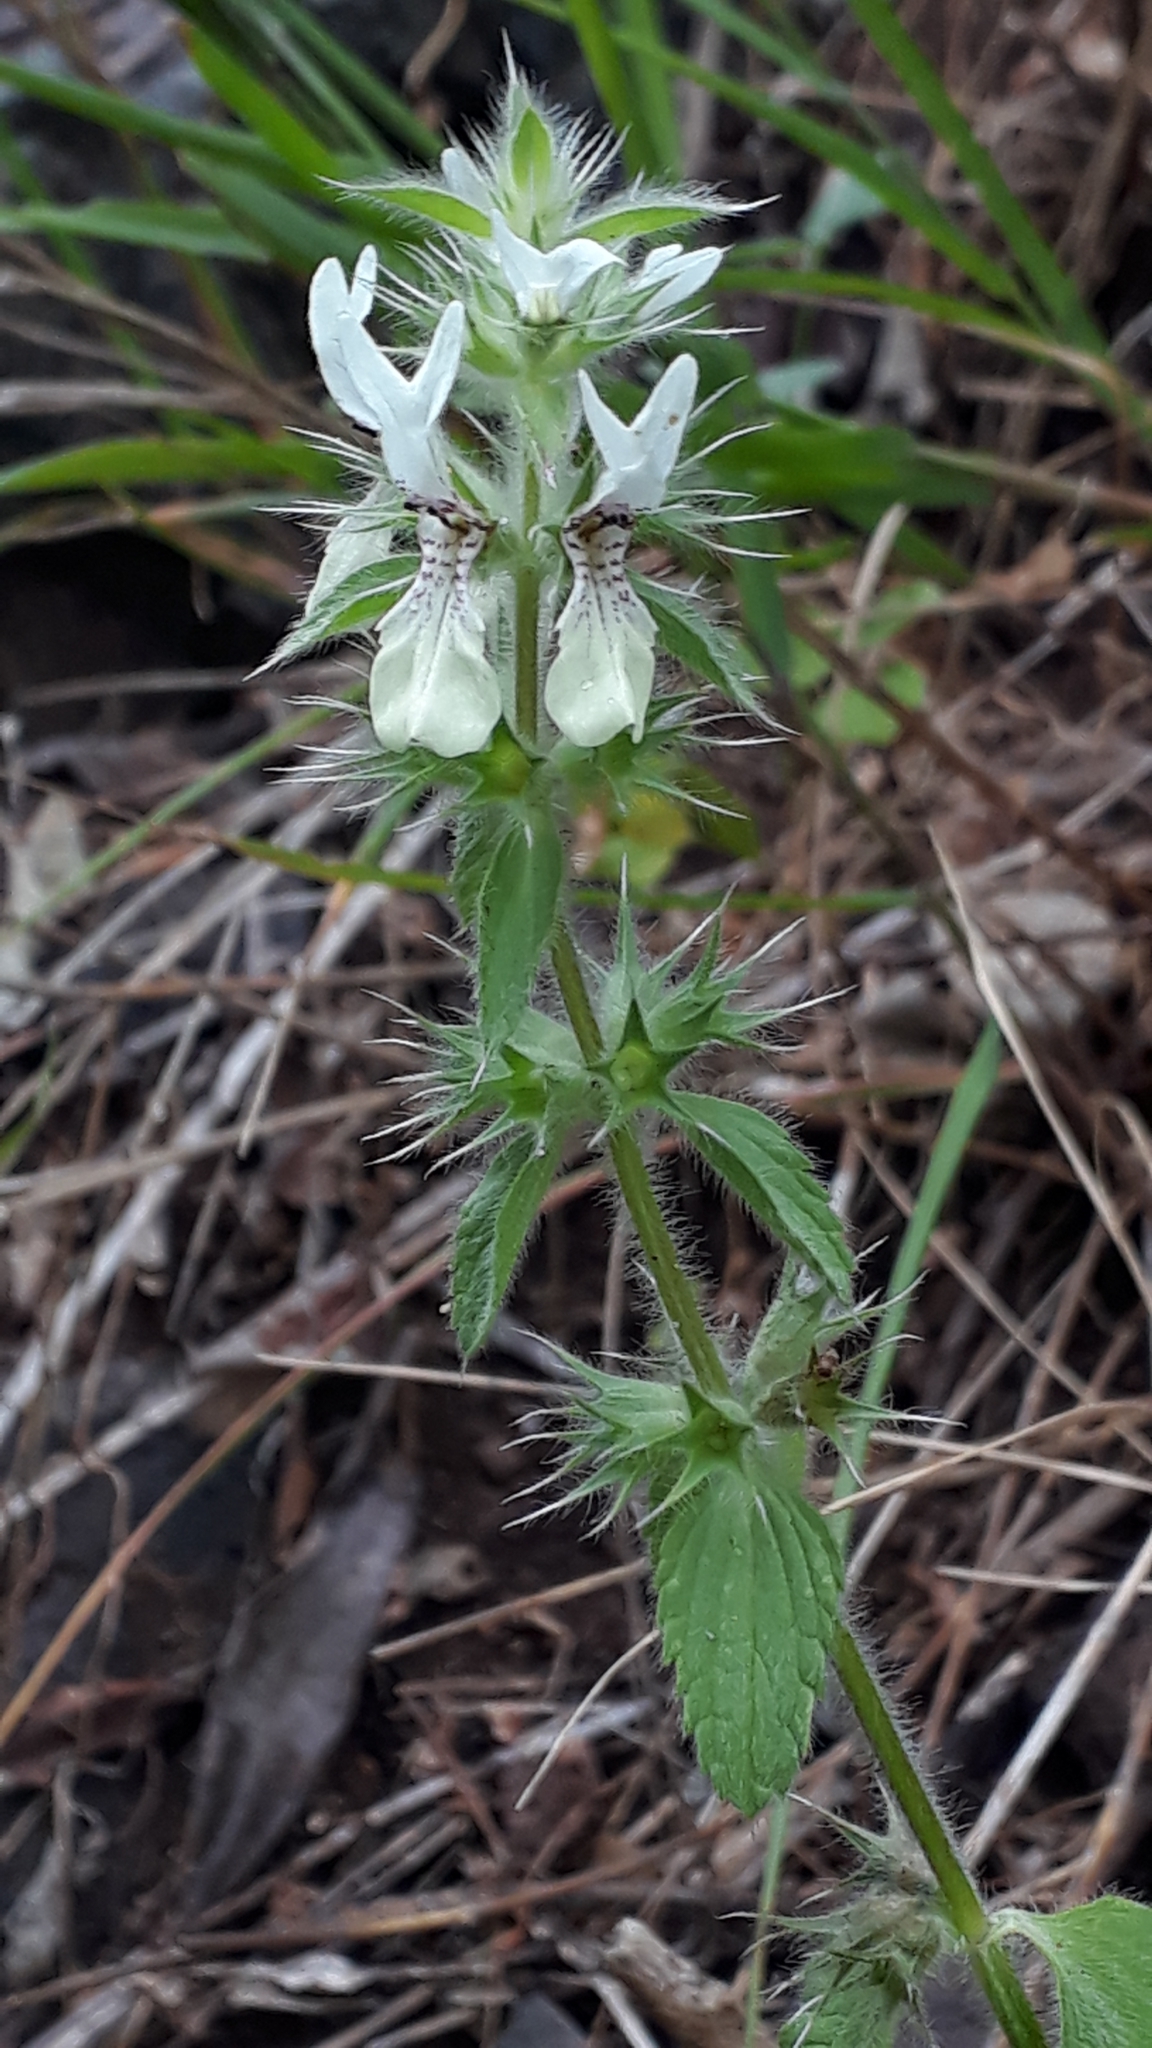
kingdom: Plantae
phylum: Tracheophyta
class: Magnoliopsida
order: Lamiales
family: Lamiaceae
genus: Stachys
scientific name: Stachys ocymastrum
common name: Italian hedgenettle
